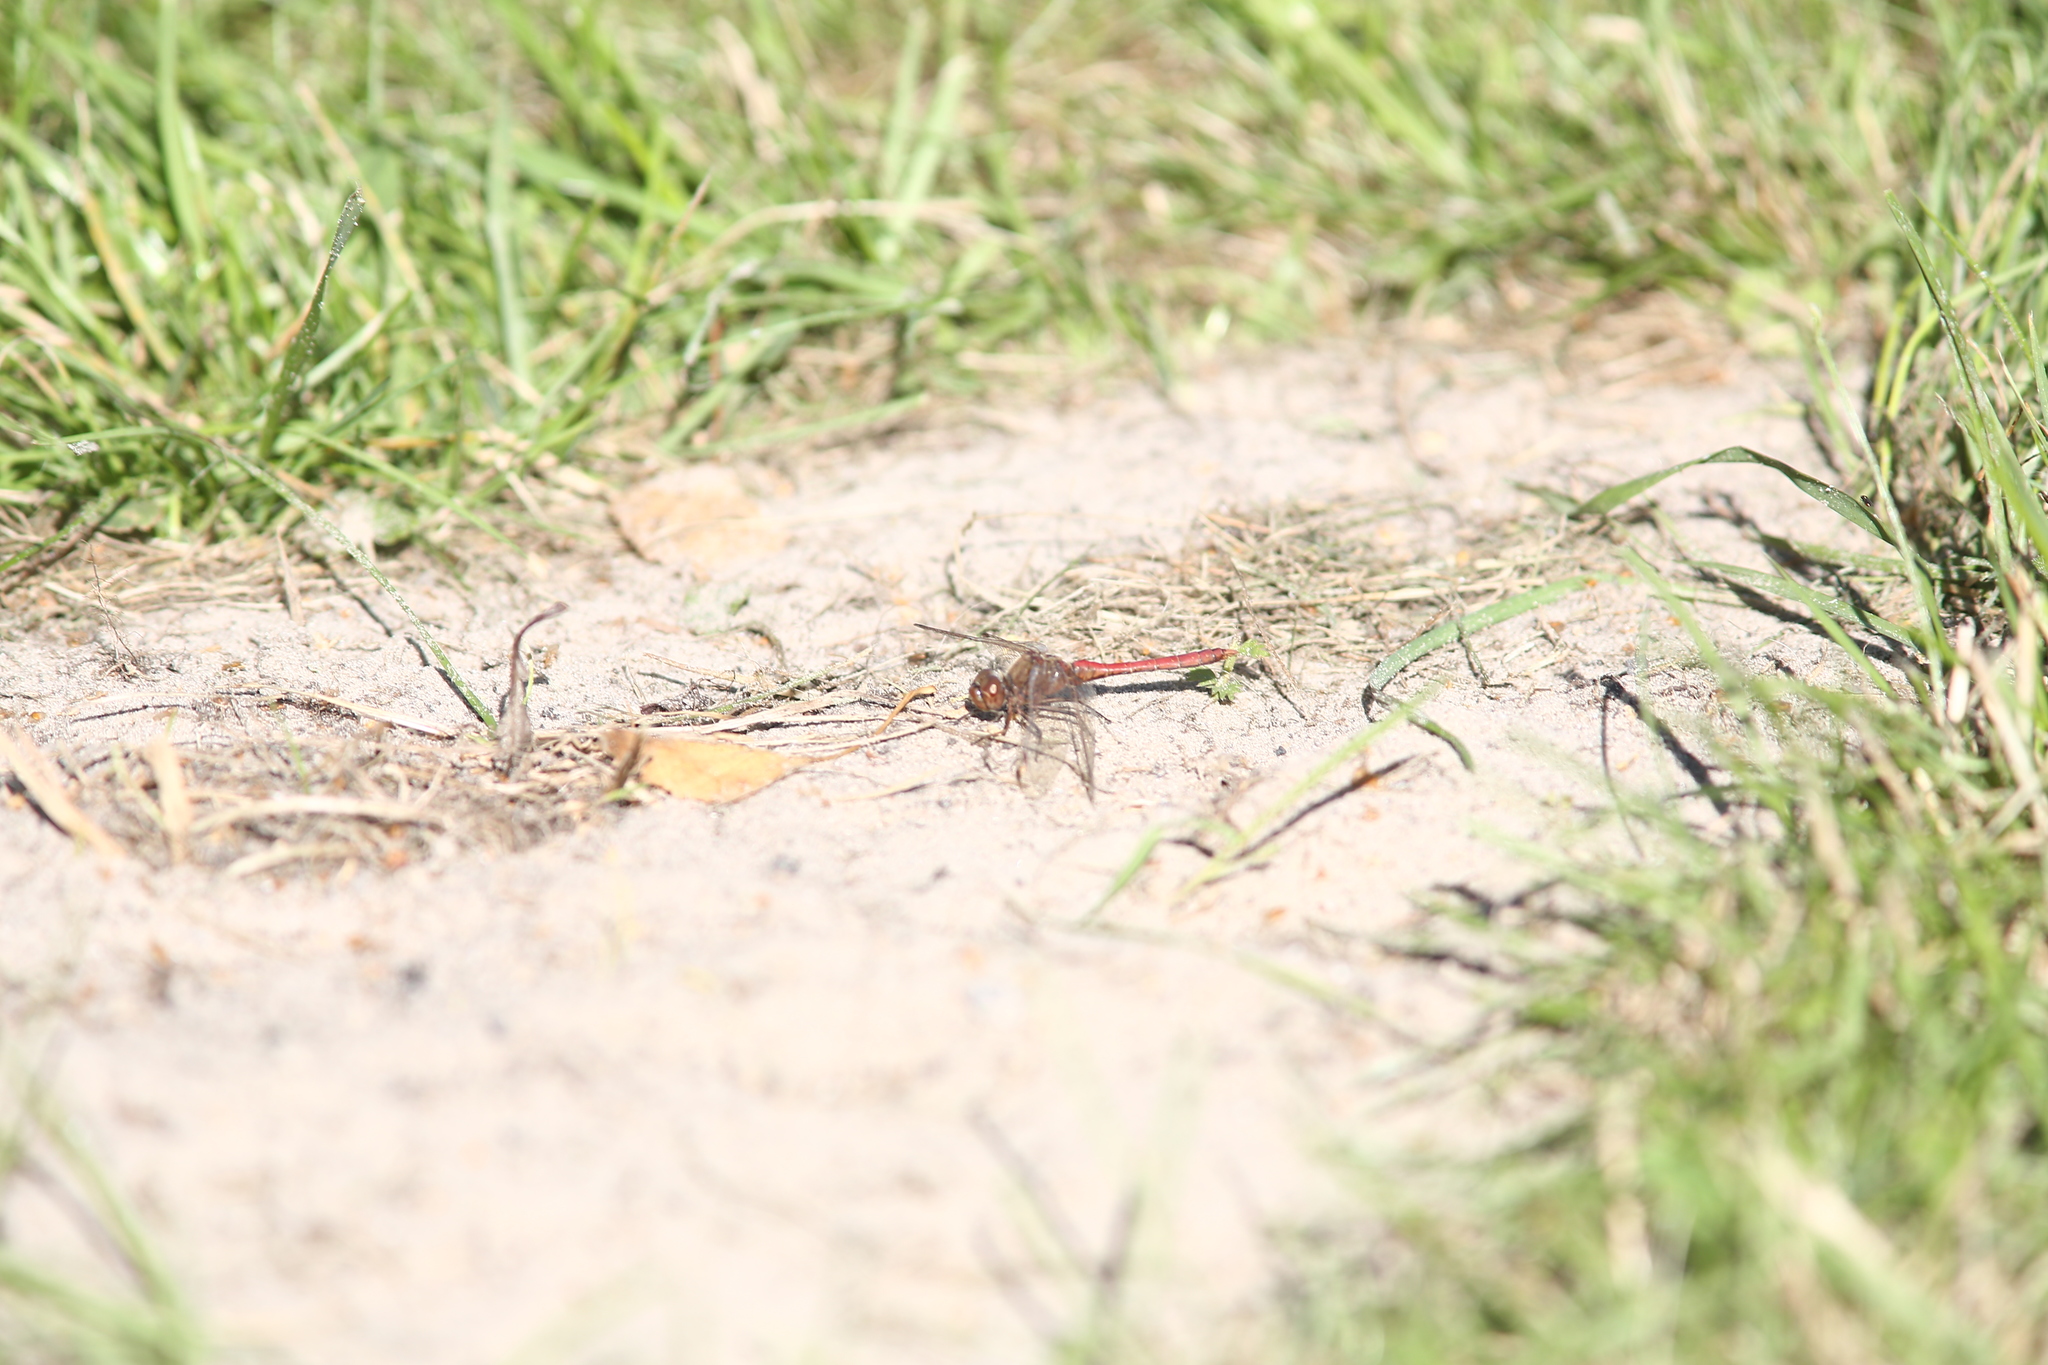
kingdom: Animalia
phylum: Arthropoda
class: Insecta
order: Odonata
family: Libellulidae
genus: Sympetrum
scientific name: Sympetrum vulgatum
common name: Vagrant darter
